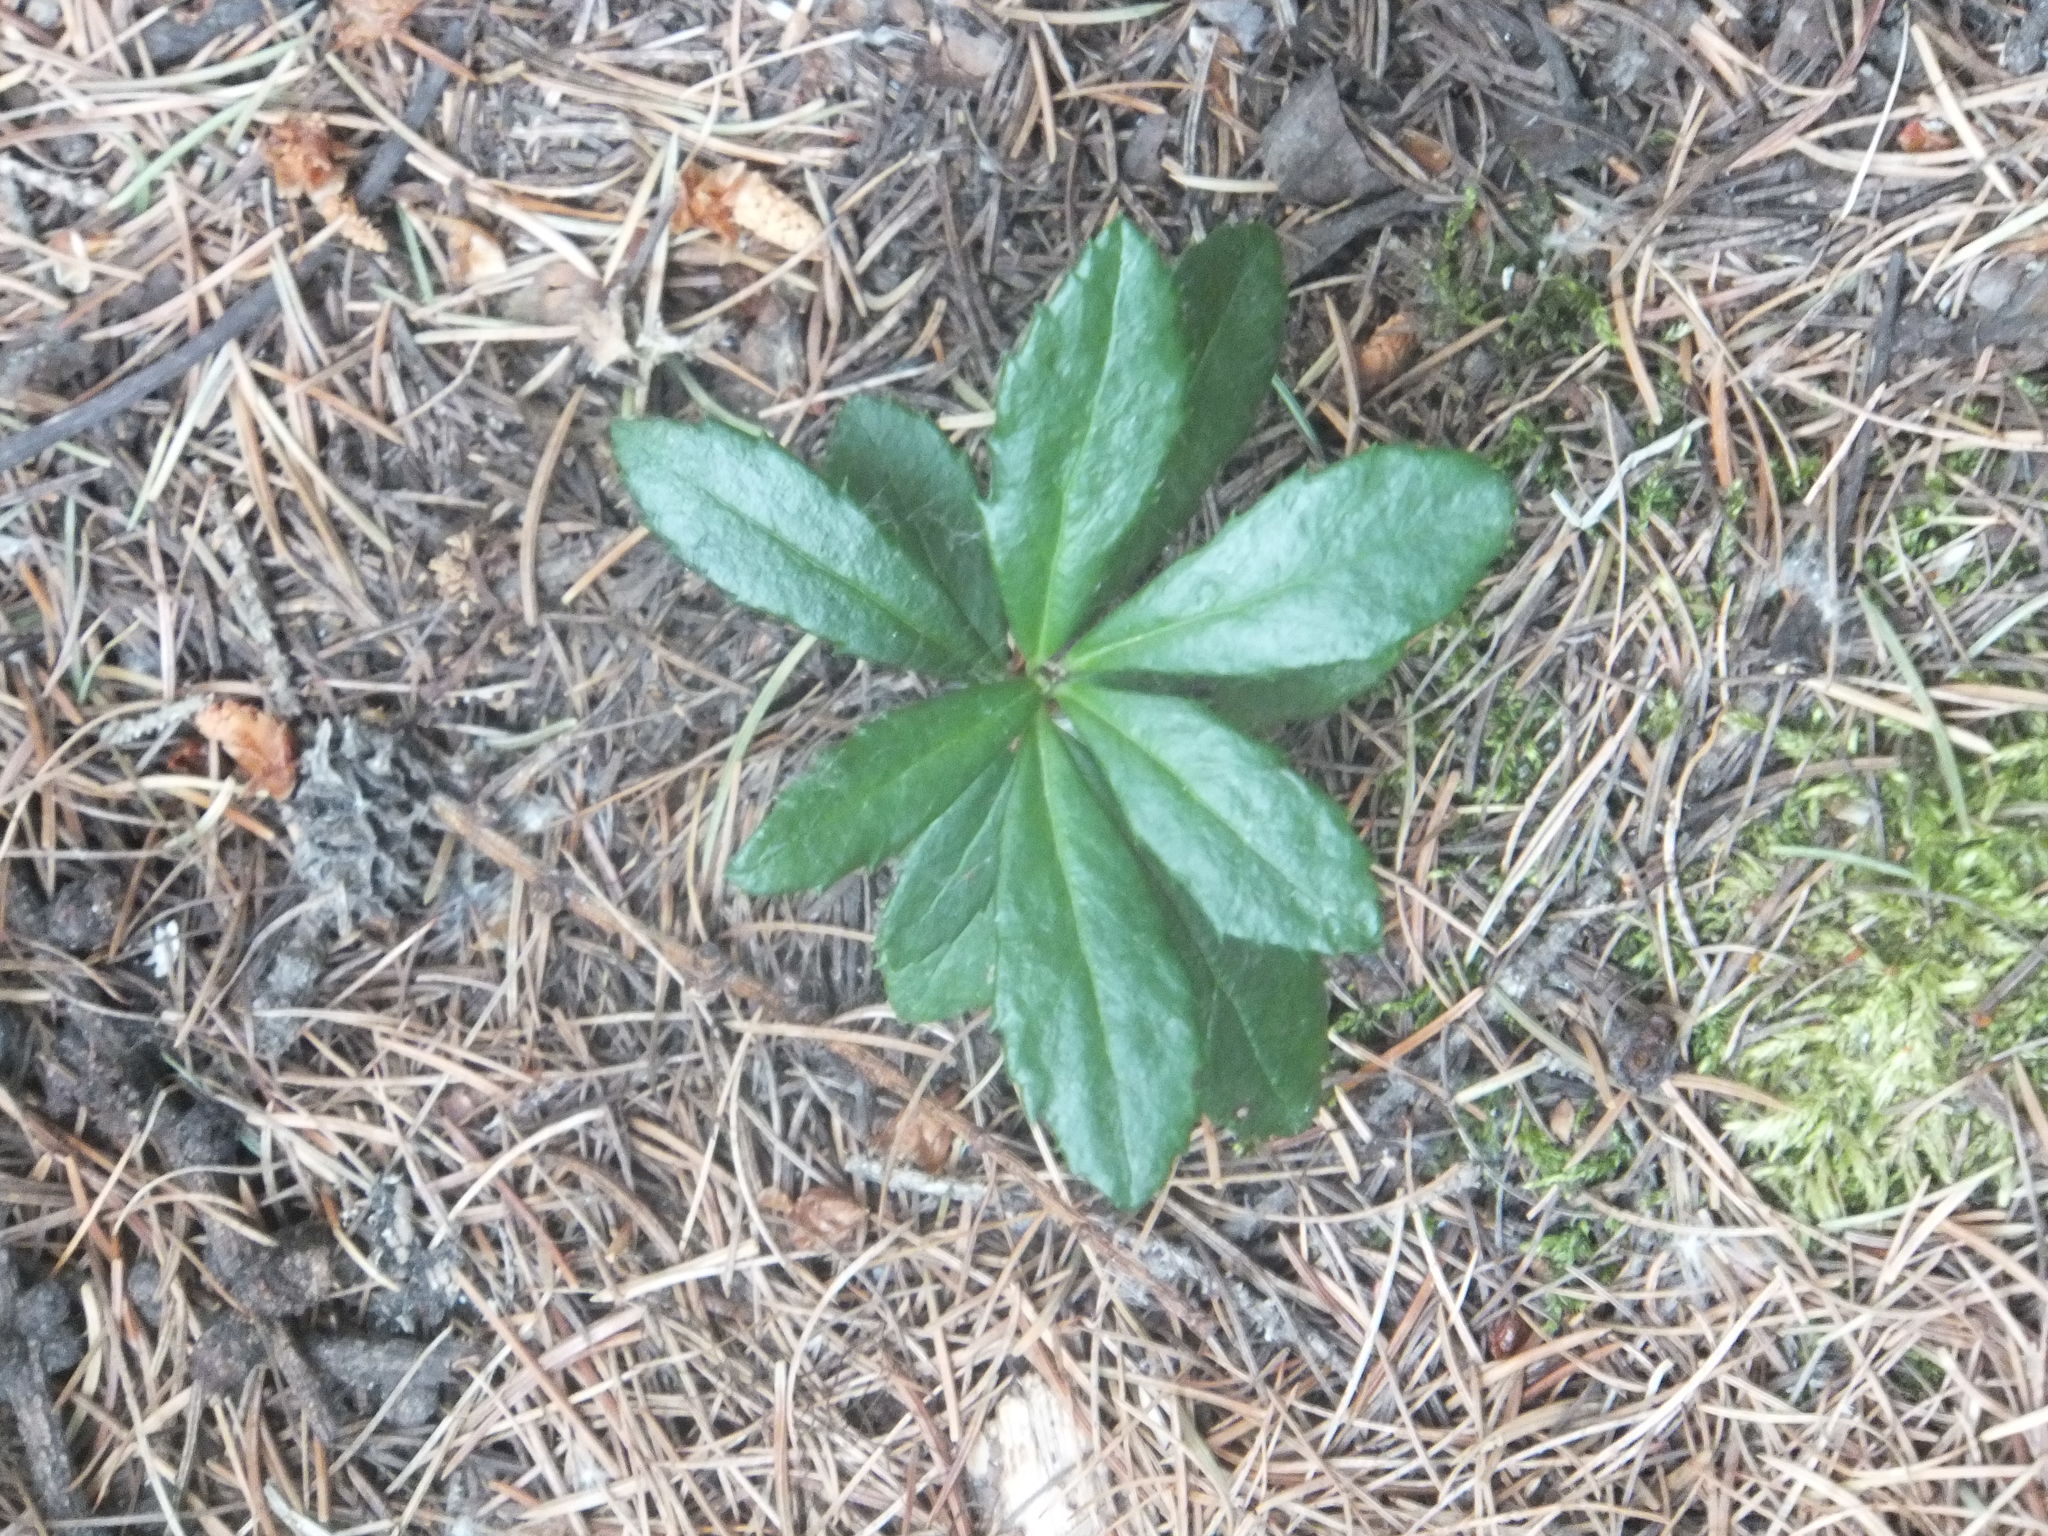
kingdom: Plantae
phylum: Tracheophyta
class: Magnoliopsida
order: Ericales
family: Ericaceae
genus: Chimaphila
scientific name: Chimaphila umbellata
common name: Pipsissewa
